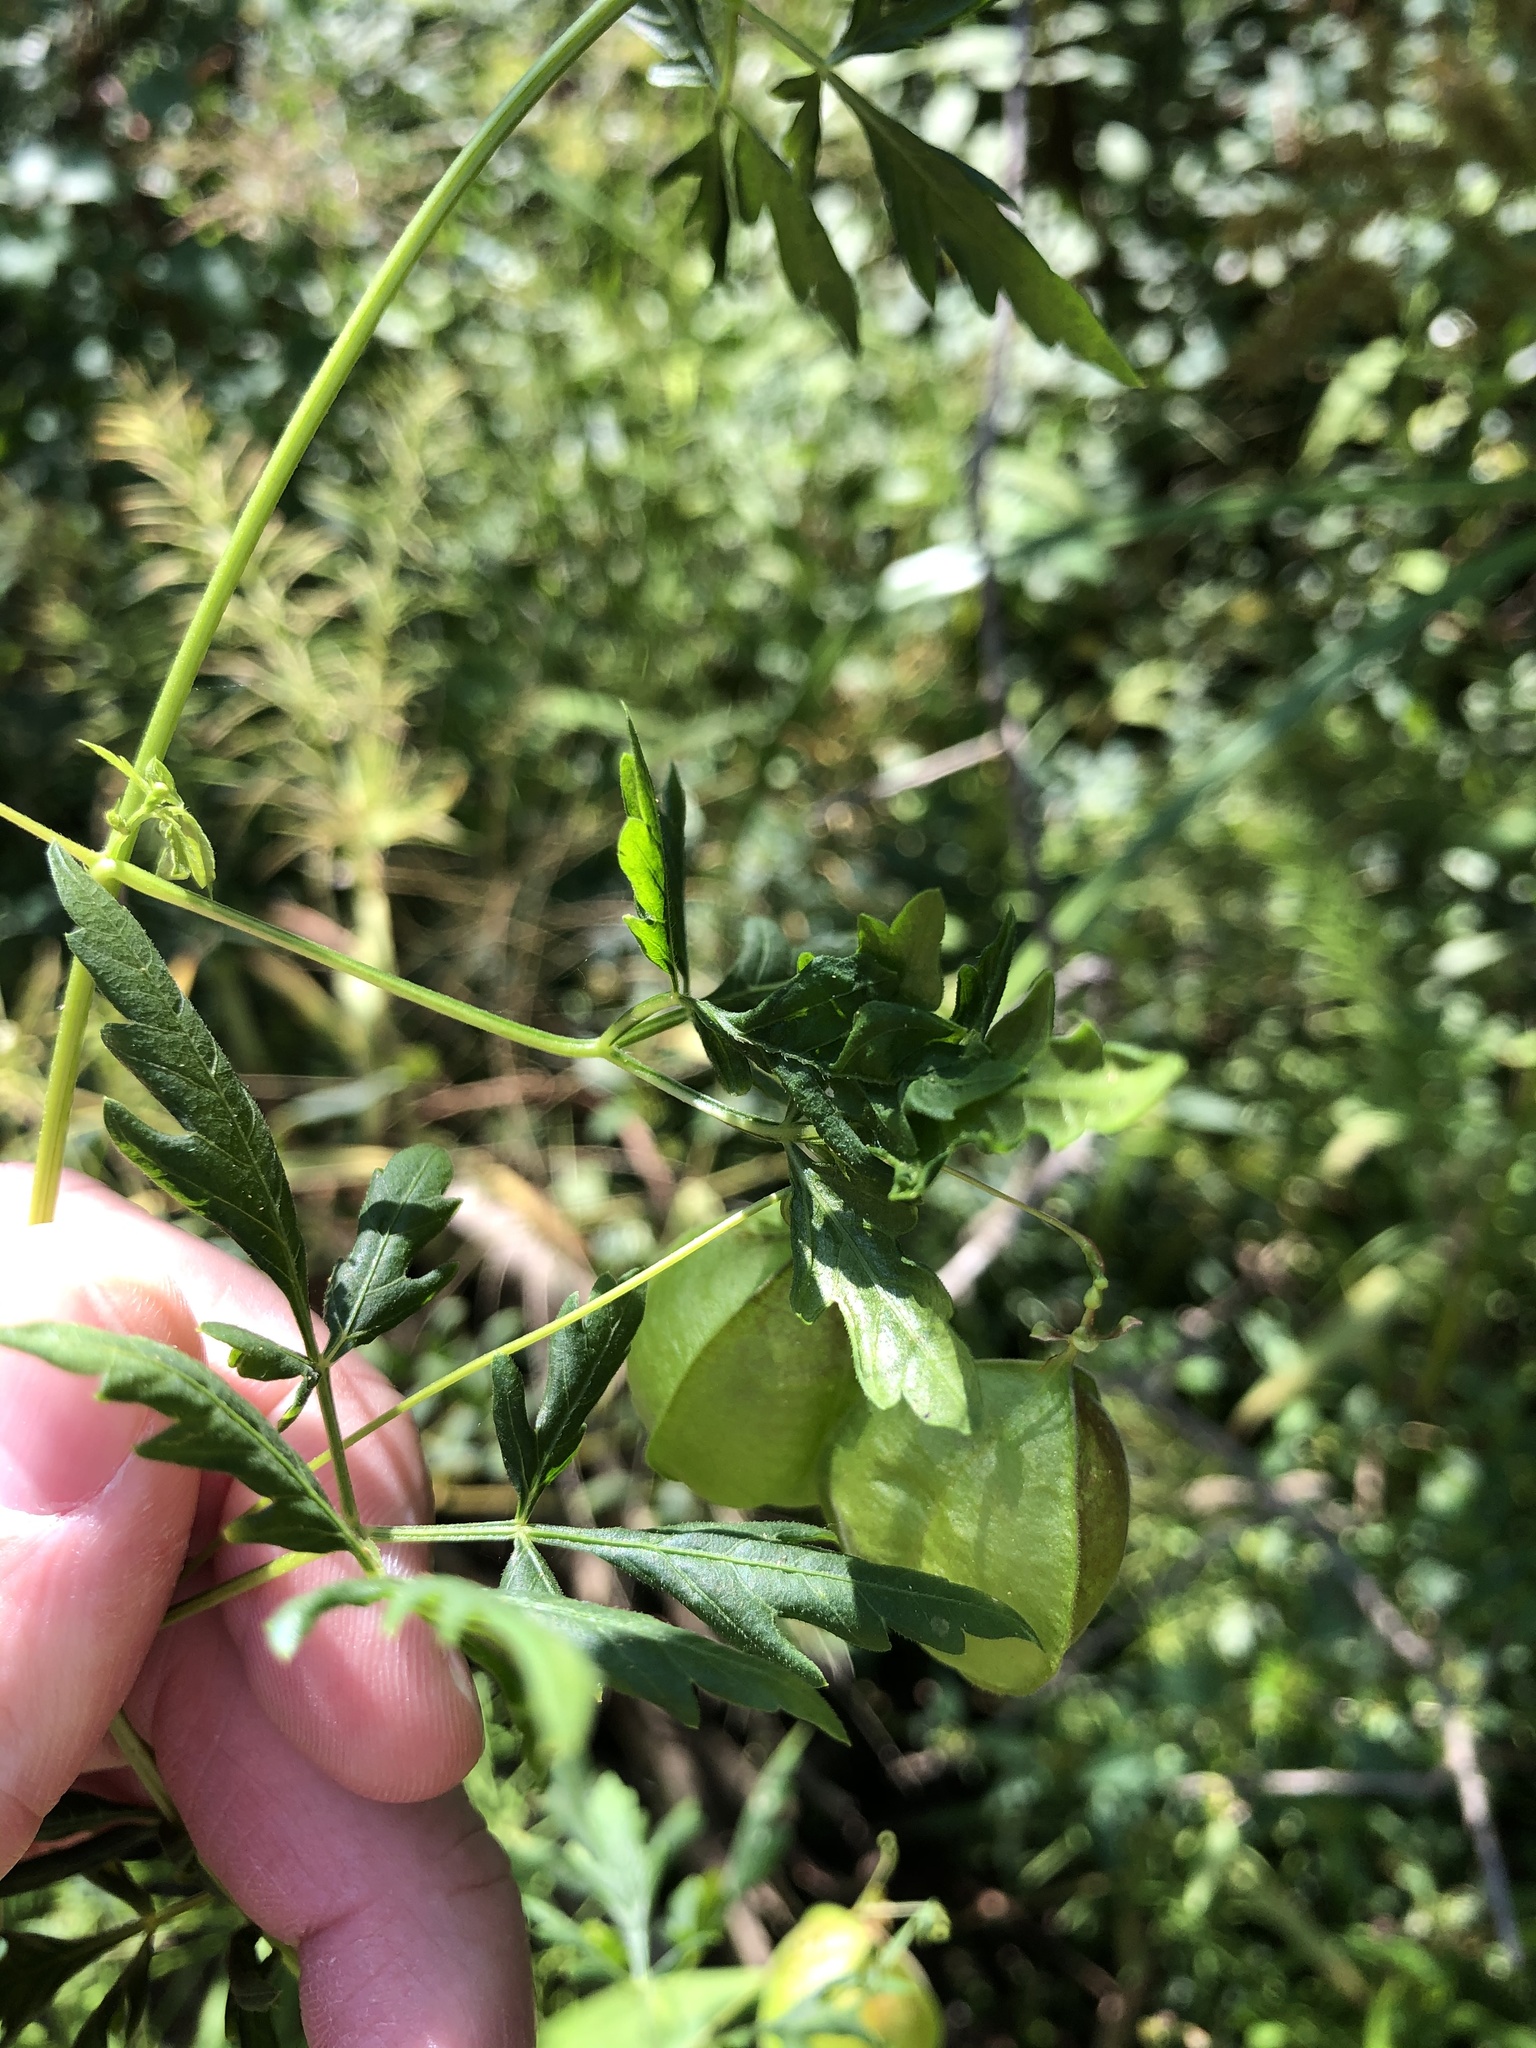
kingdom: Plantae
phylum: Tracheophyta
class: Magnoliopsida
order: Sapindales
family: Sapindaceae
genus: Cardiospermum
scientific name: Cardiospermum halicacabum
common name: Balloon vine
